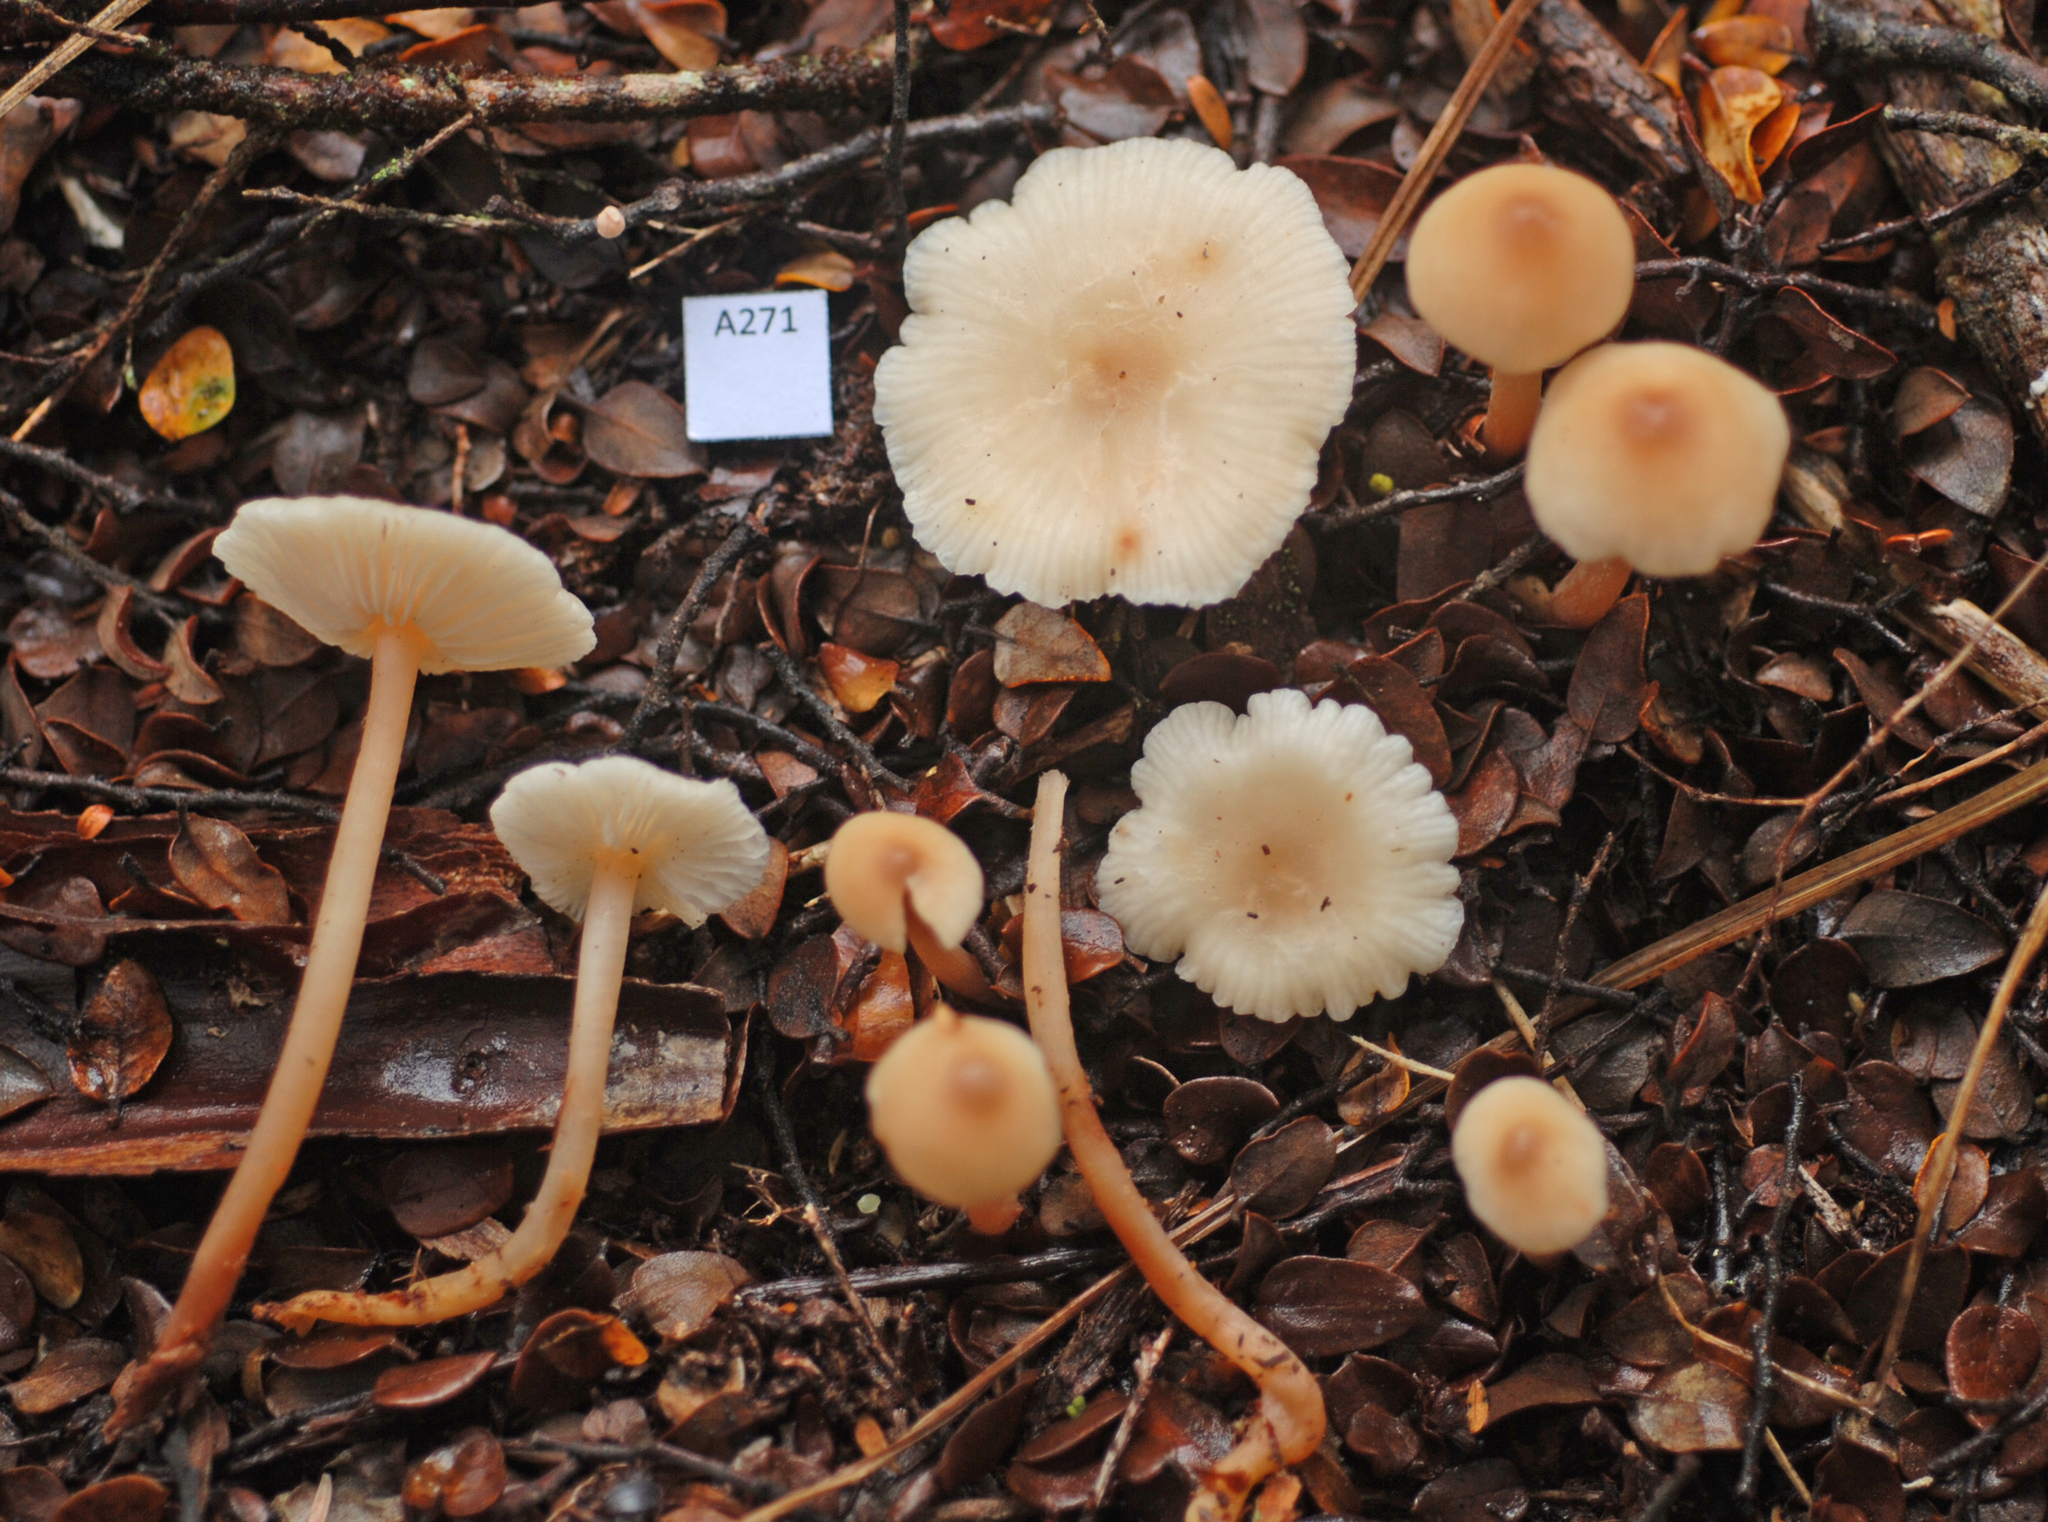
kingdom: Fungi
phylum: Basidiomycota
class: Agaricomycetes
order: Agaricales
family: Omphalotaceae
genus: Gymnopus
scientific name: Gymnopus cockaynei
